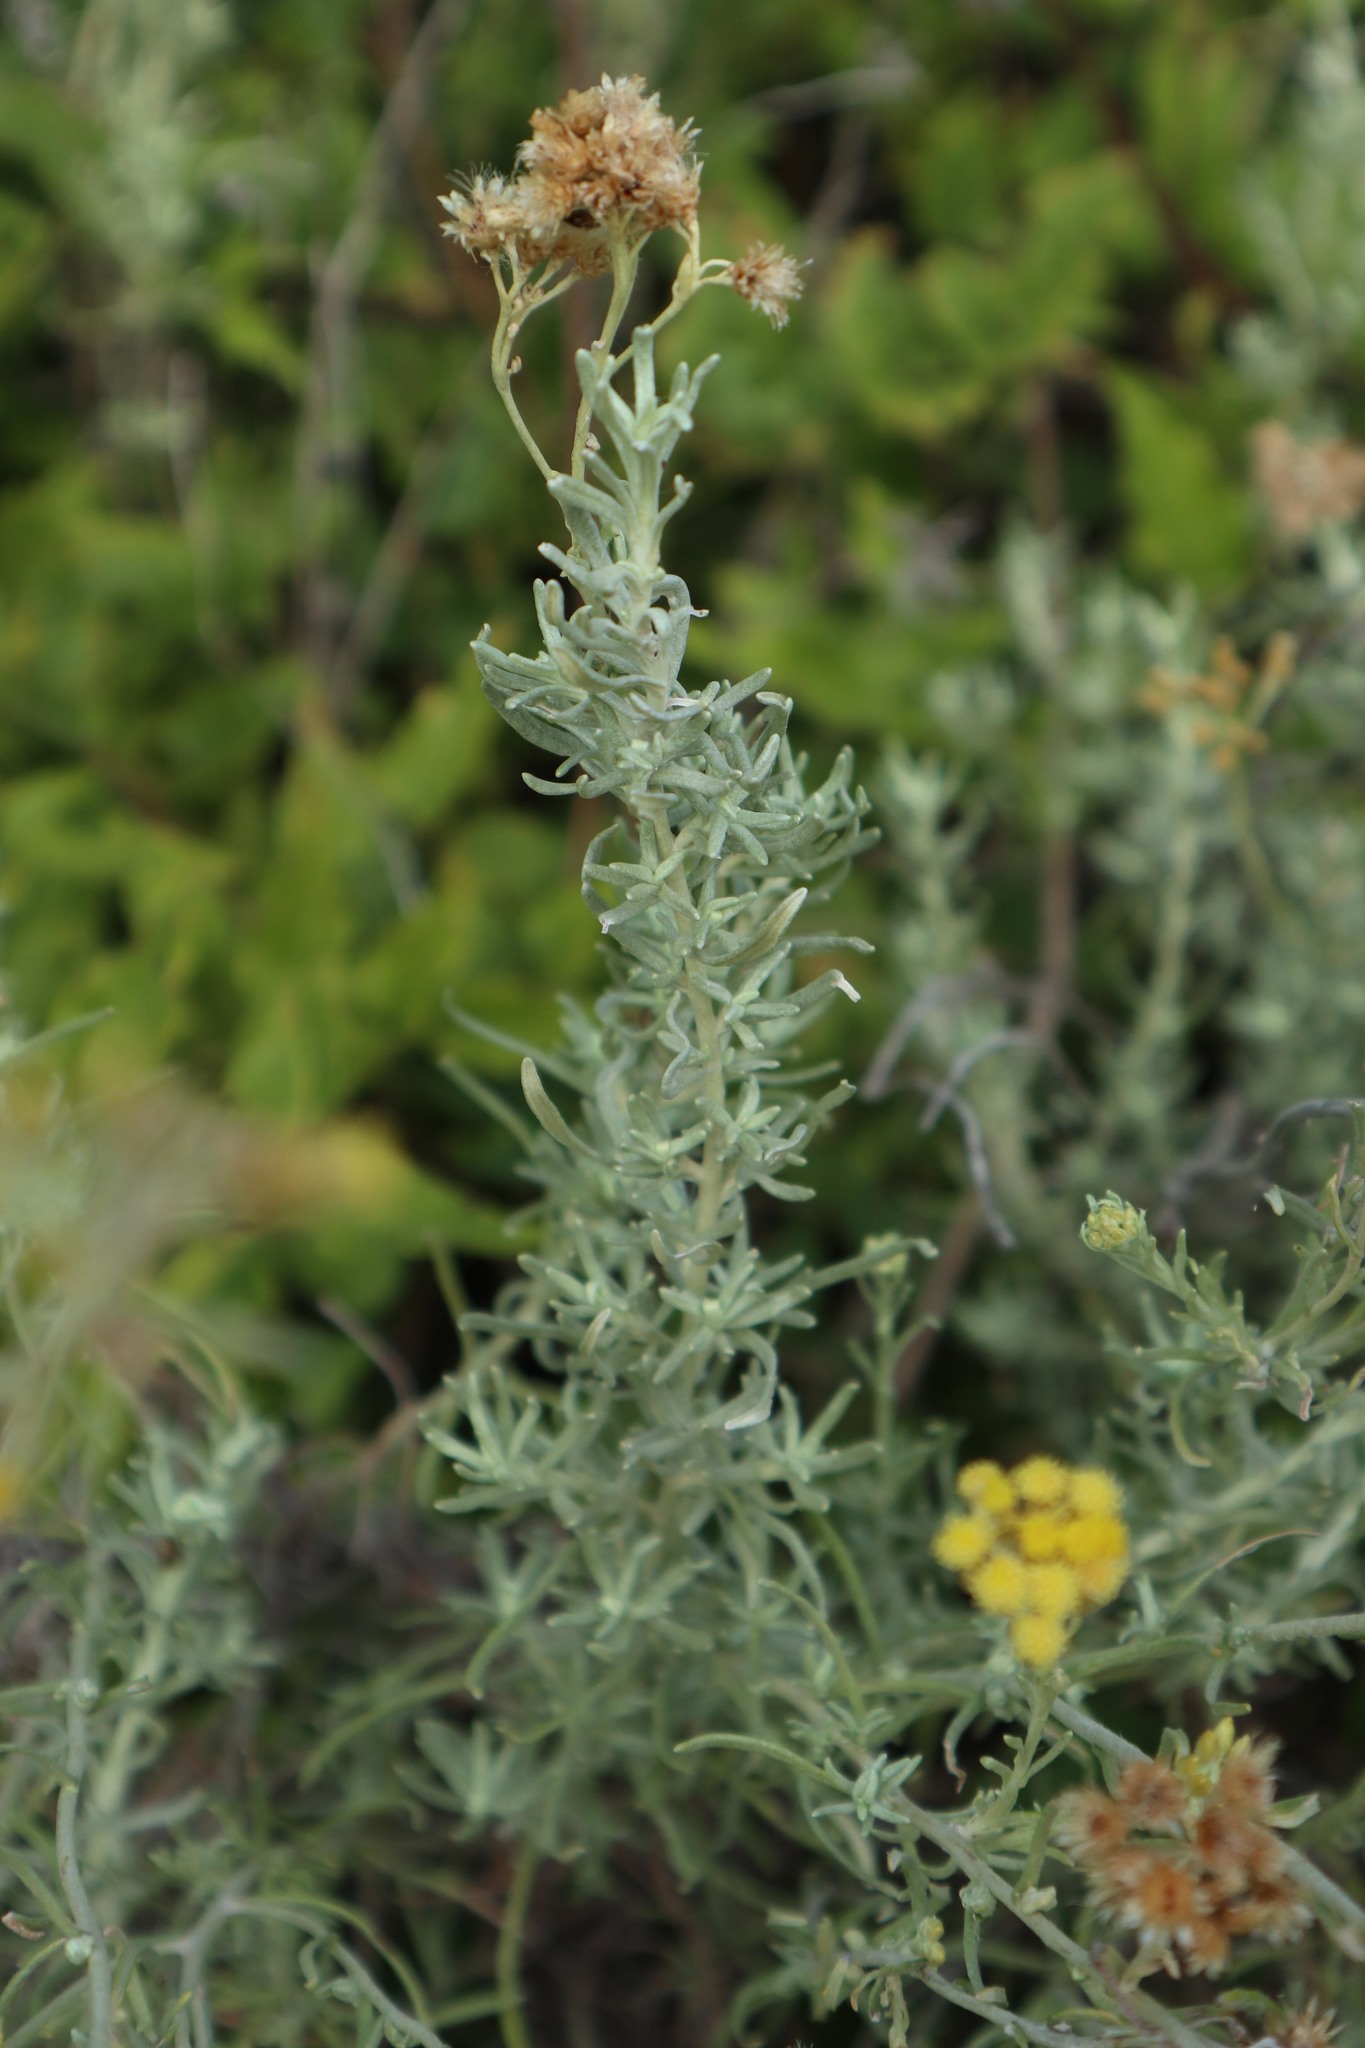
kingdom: Plantae
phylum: Tracheophyta
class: Magnoliopsida
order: Asterales
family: Asteraceae
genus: Helichrysum
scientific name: Helichrysum italicum
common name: Curryplant
